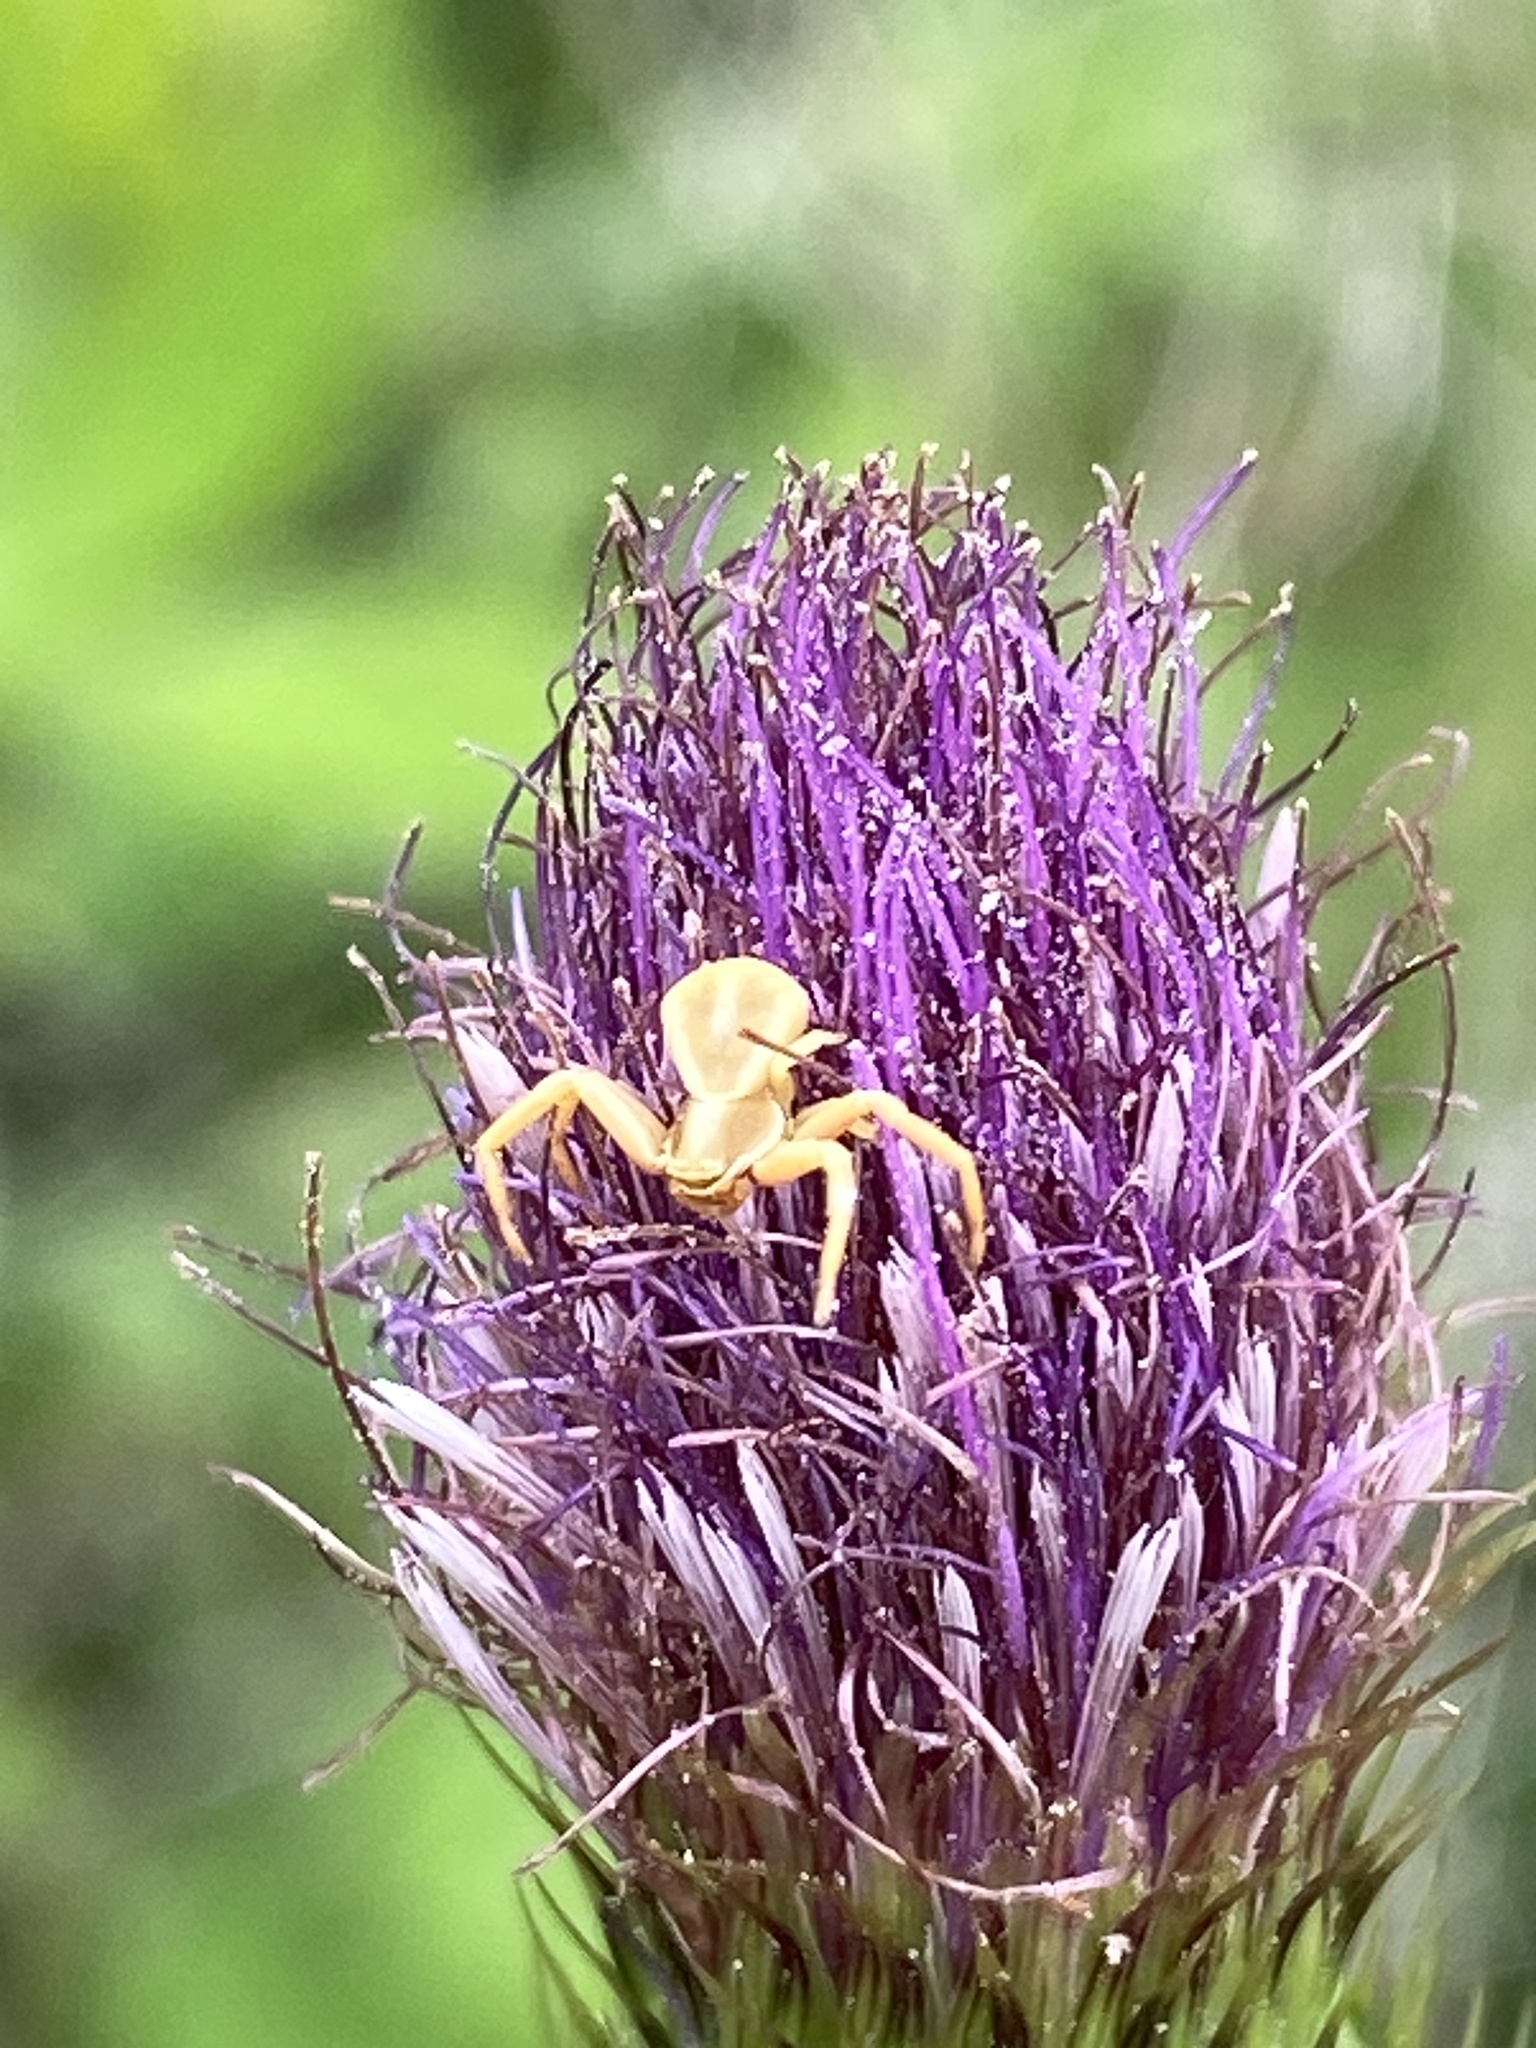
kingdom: Animalia
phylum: Arthropoda
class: Arachnida
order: Araneae
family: Thomisidae
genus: Misumenoides
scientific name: Misumenoides formosipes
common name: White-banded crab spider
